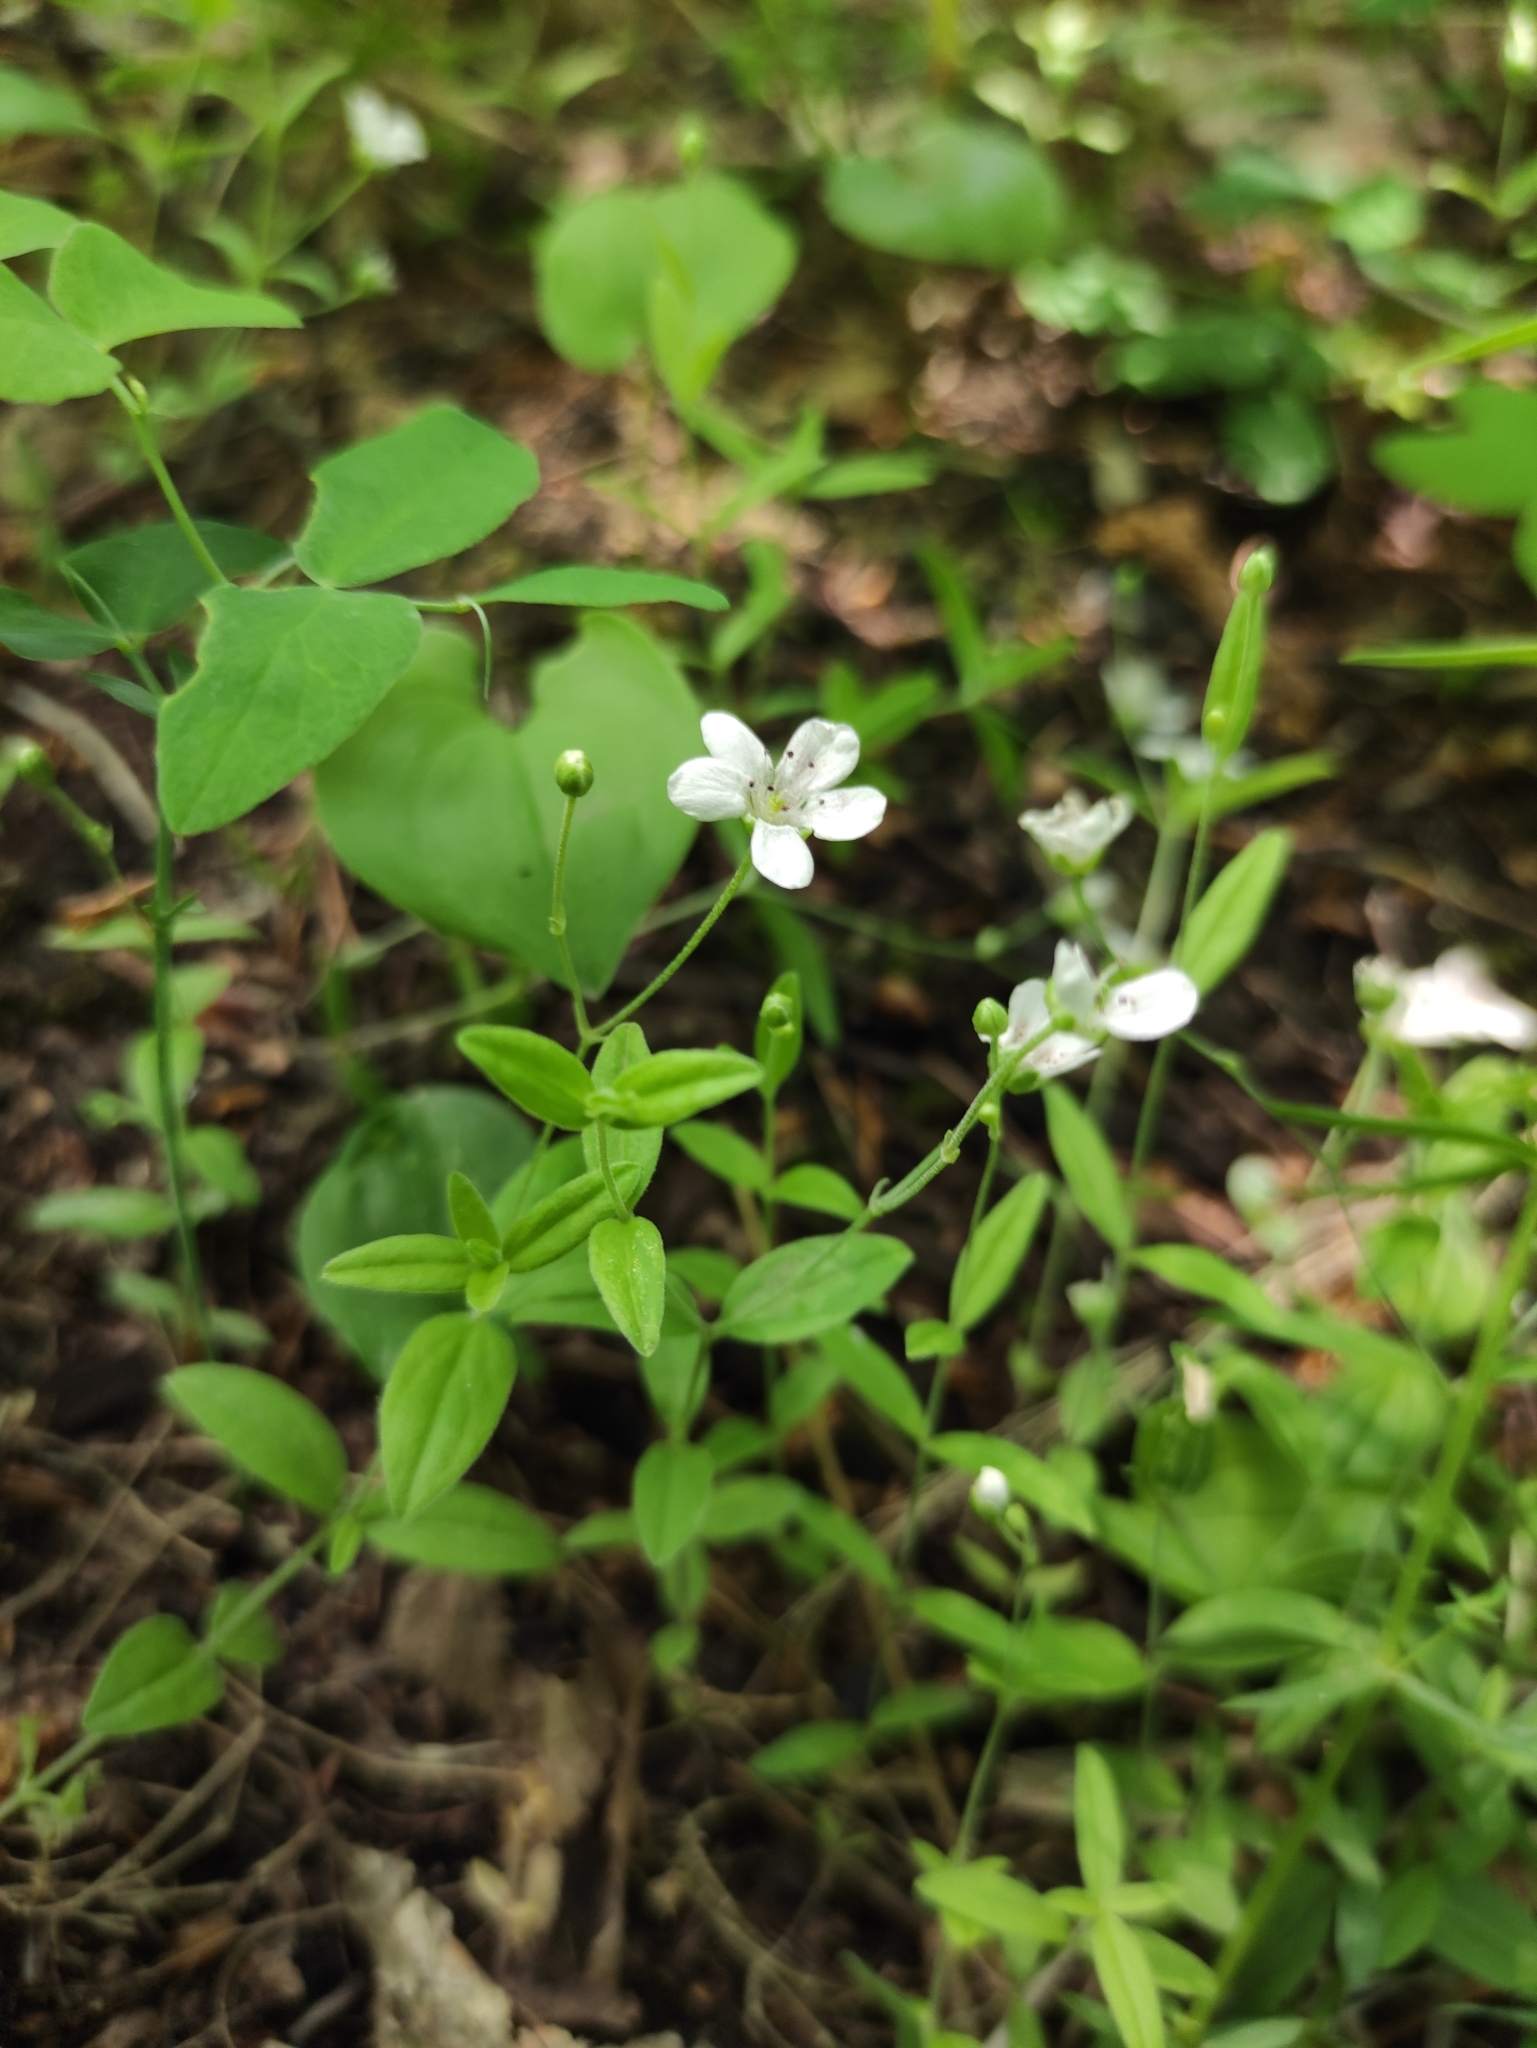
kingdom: Plantae
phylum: Tracheophyta
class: Magnoliopsida
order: Caryophyllales
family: Caryophyllaceae
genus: Moehringia
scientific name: Moehringia lateriflora
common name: Blunt-leaved sandwort
